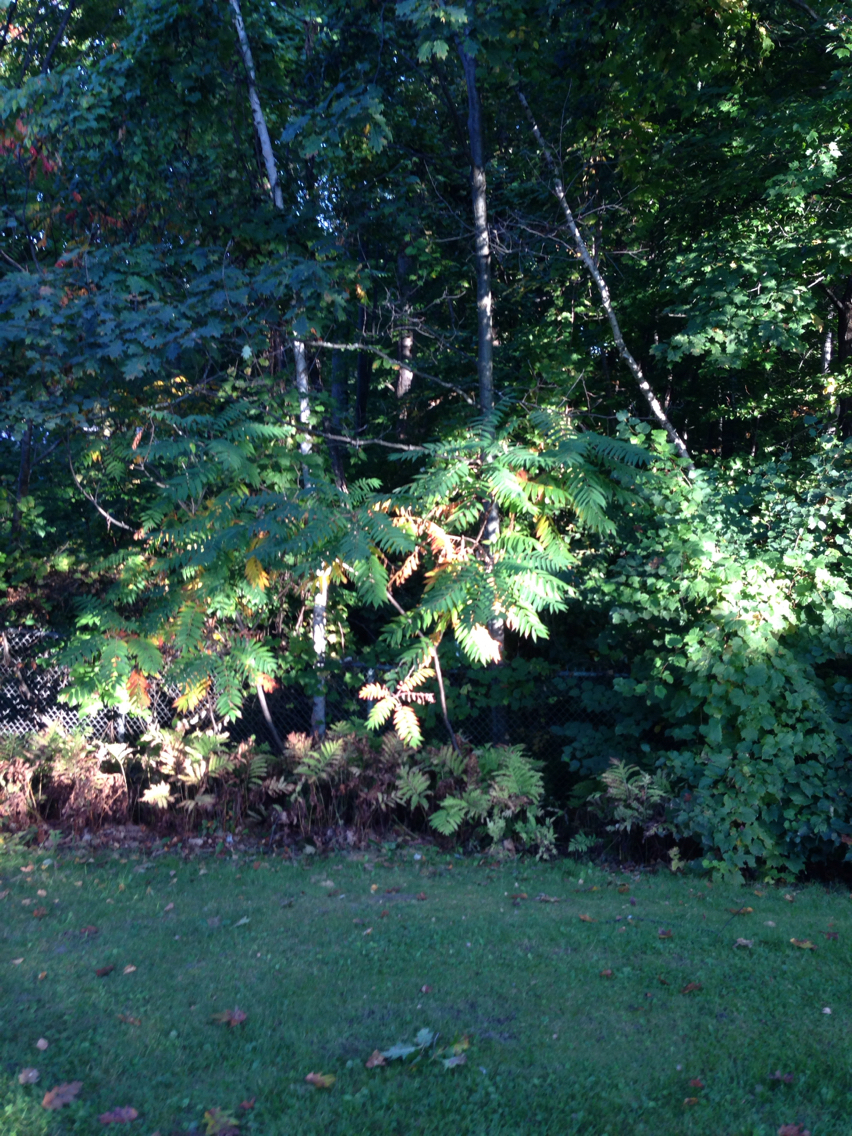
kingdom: Plantae
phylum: Tracheophyta
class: Polypodiopsida
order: Polypodiales
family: Onocleaceae
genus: Onoclea
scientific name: Onoclea sensibilis
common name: Sensitive fern
